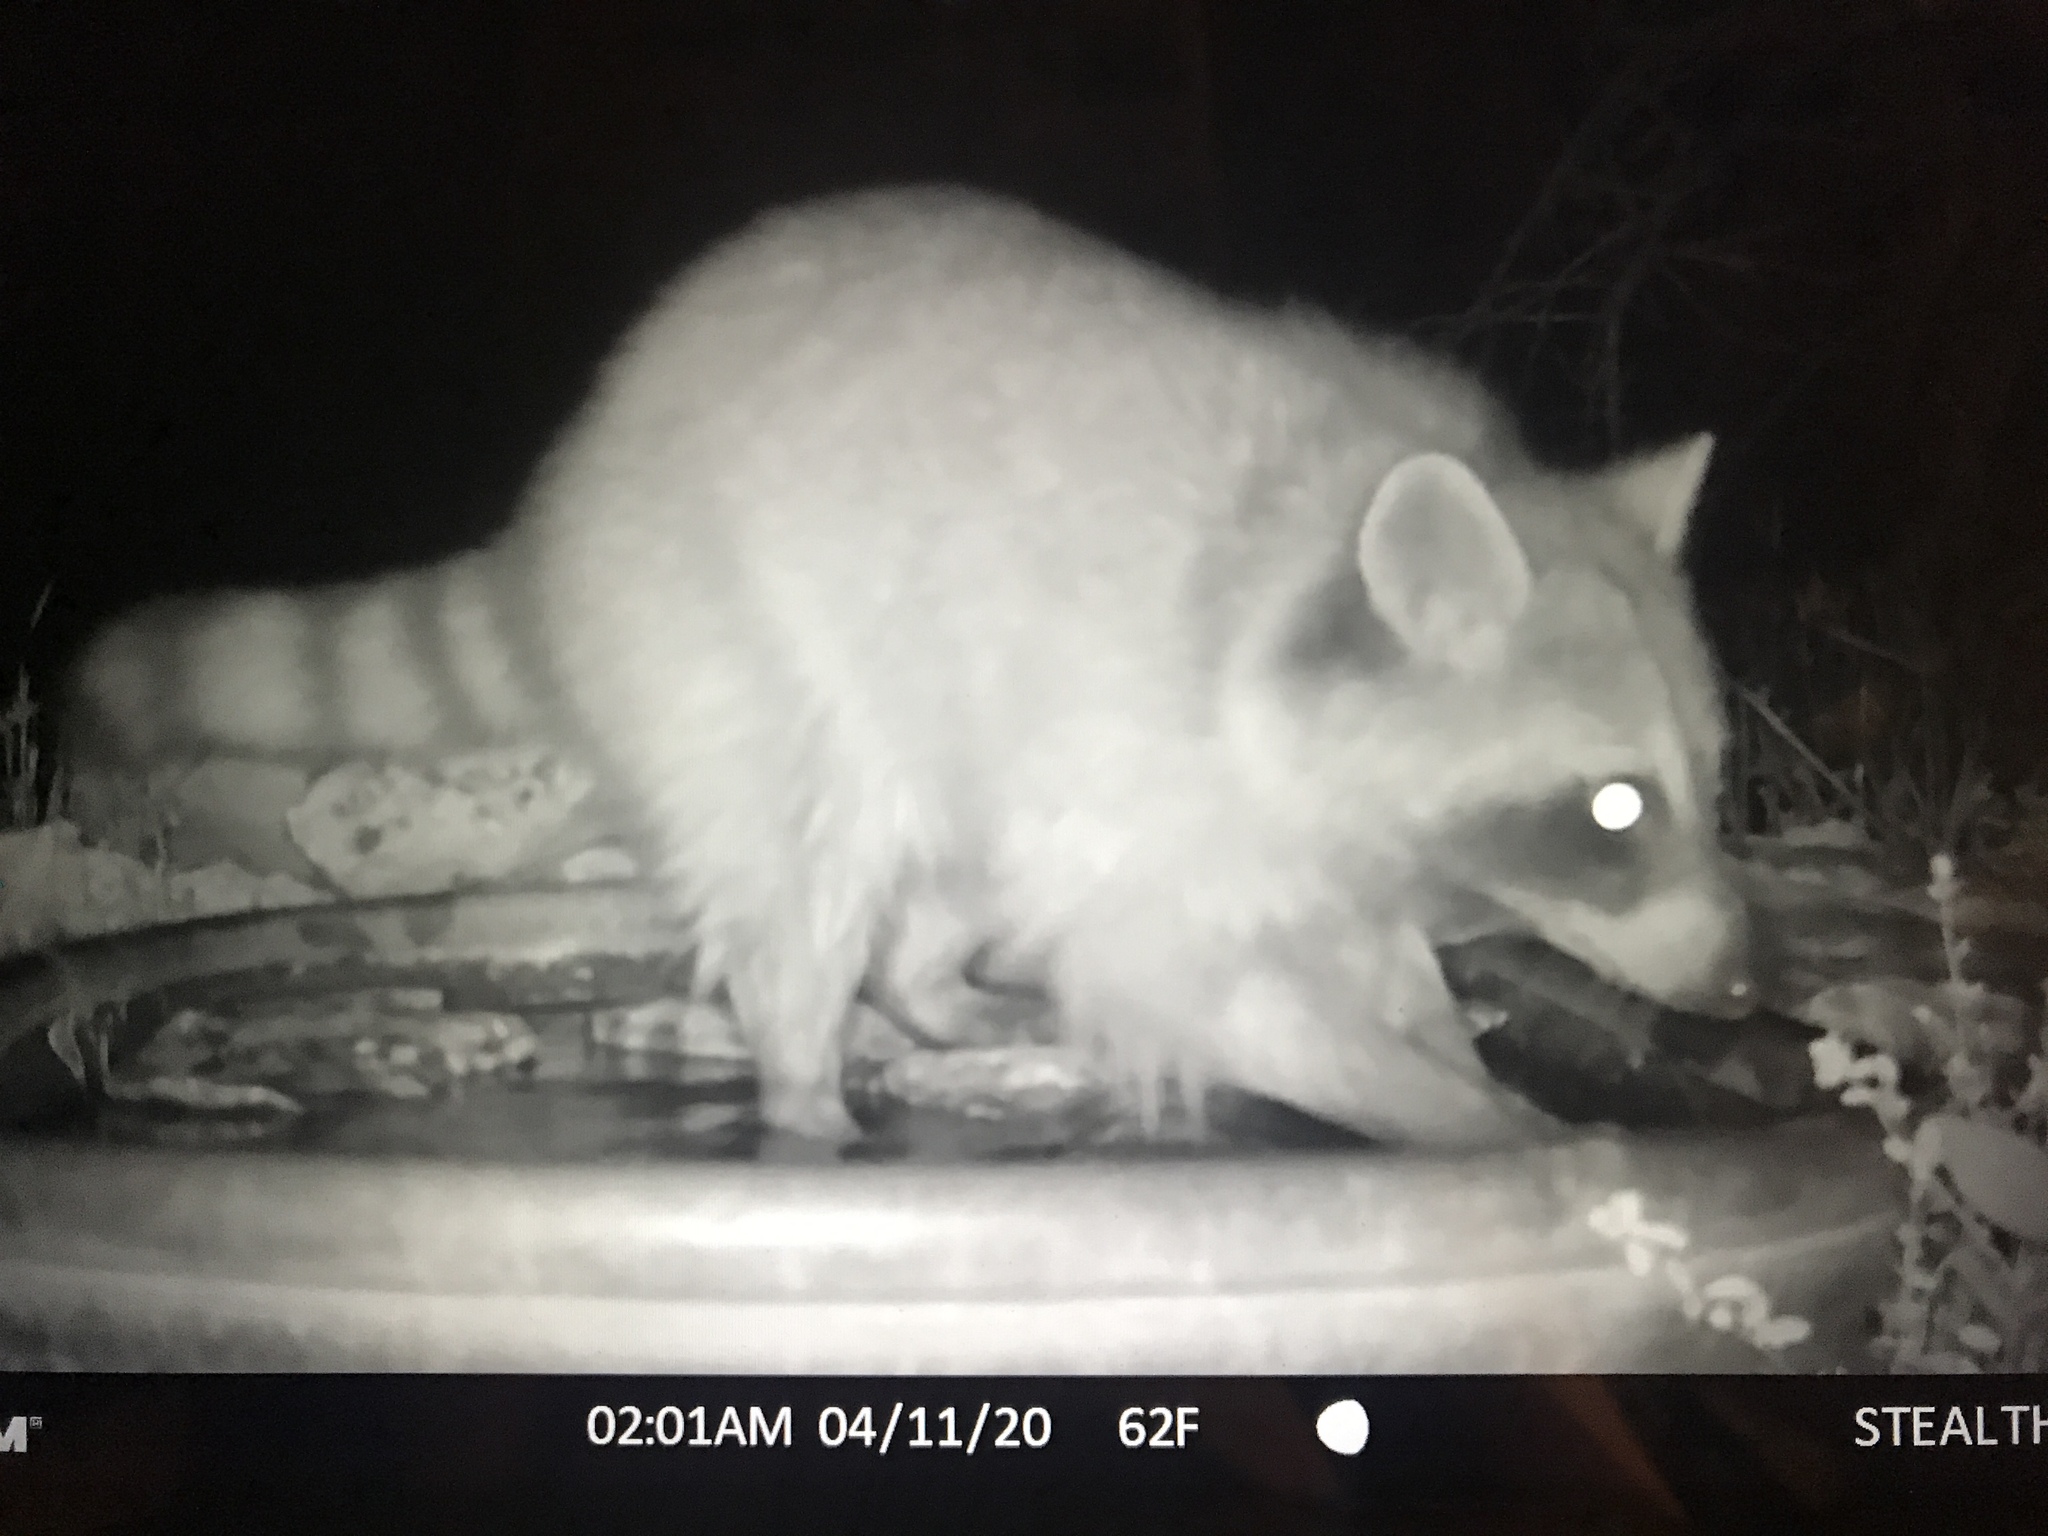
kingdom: Animalia
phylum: Chordata
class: Mammalia
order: Carnivora
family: Procyonidae
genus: Procyon
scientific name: Procyon lotor
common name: Raccoon
